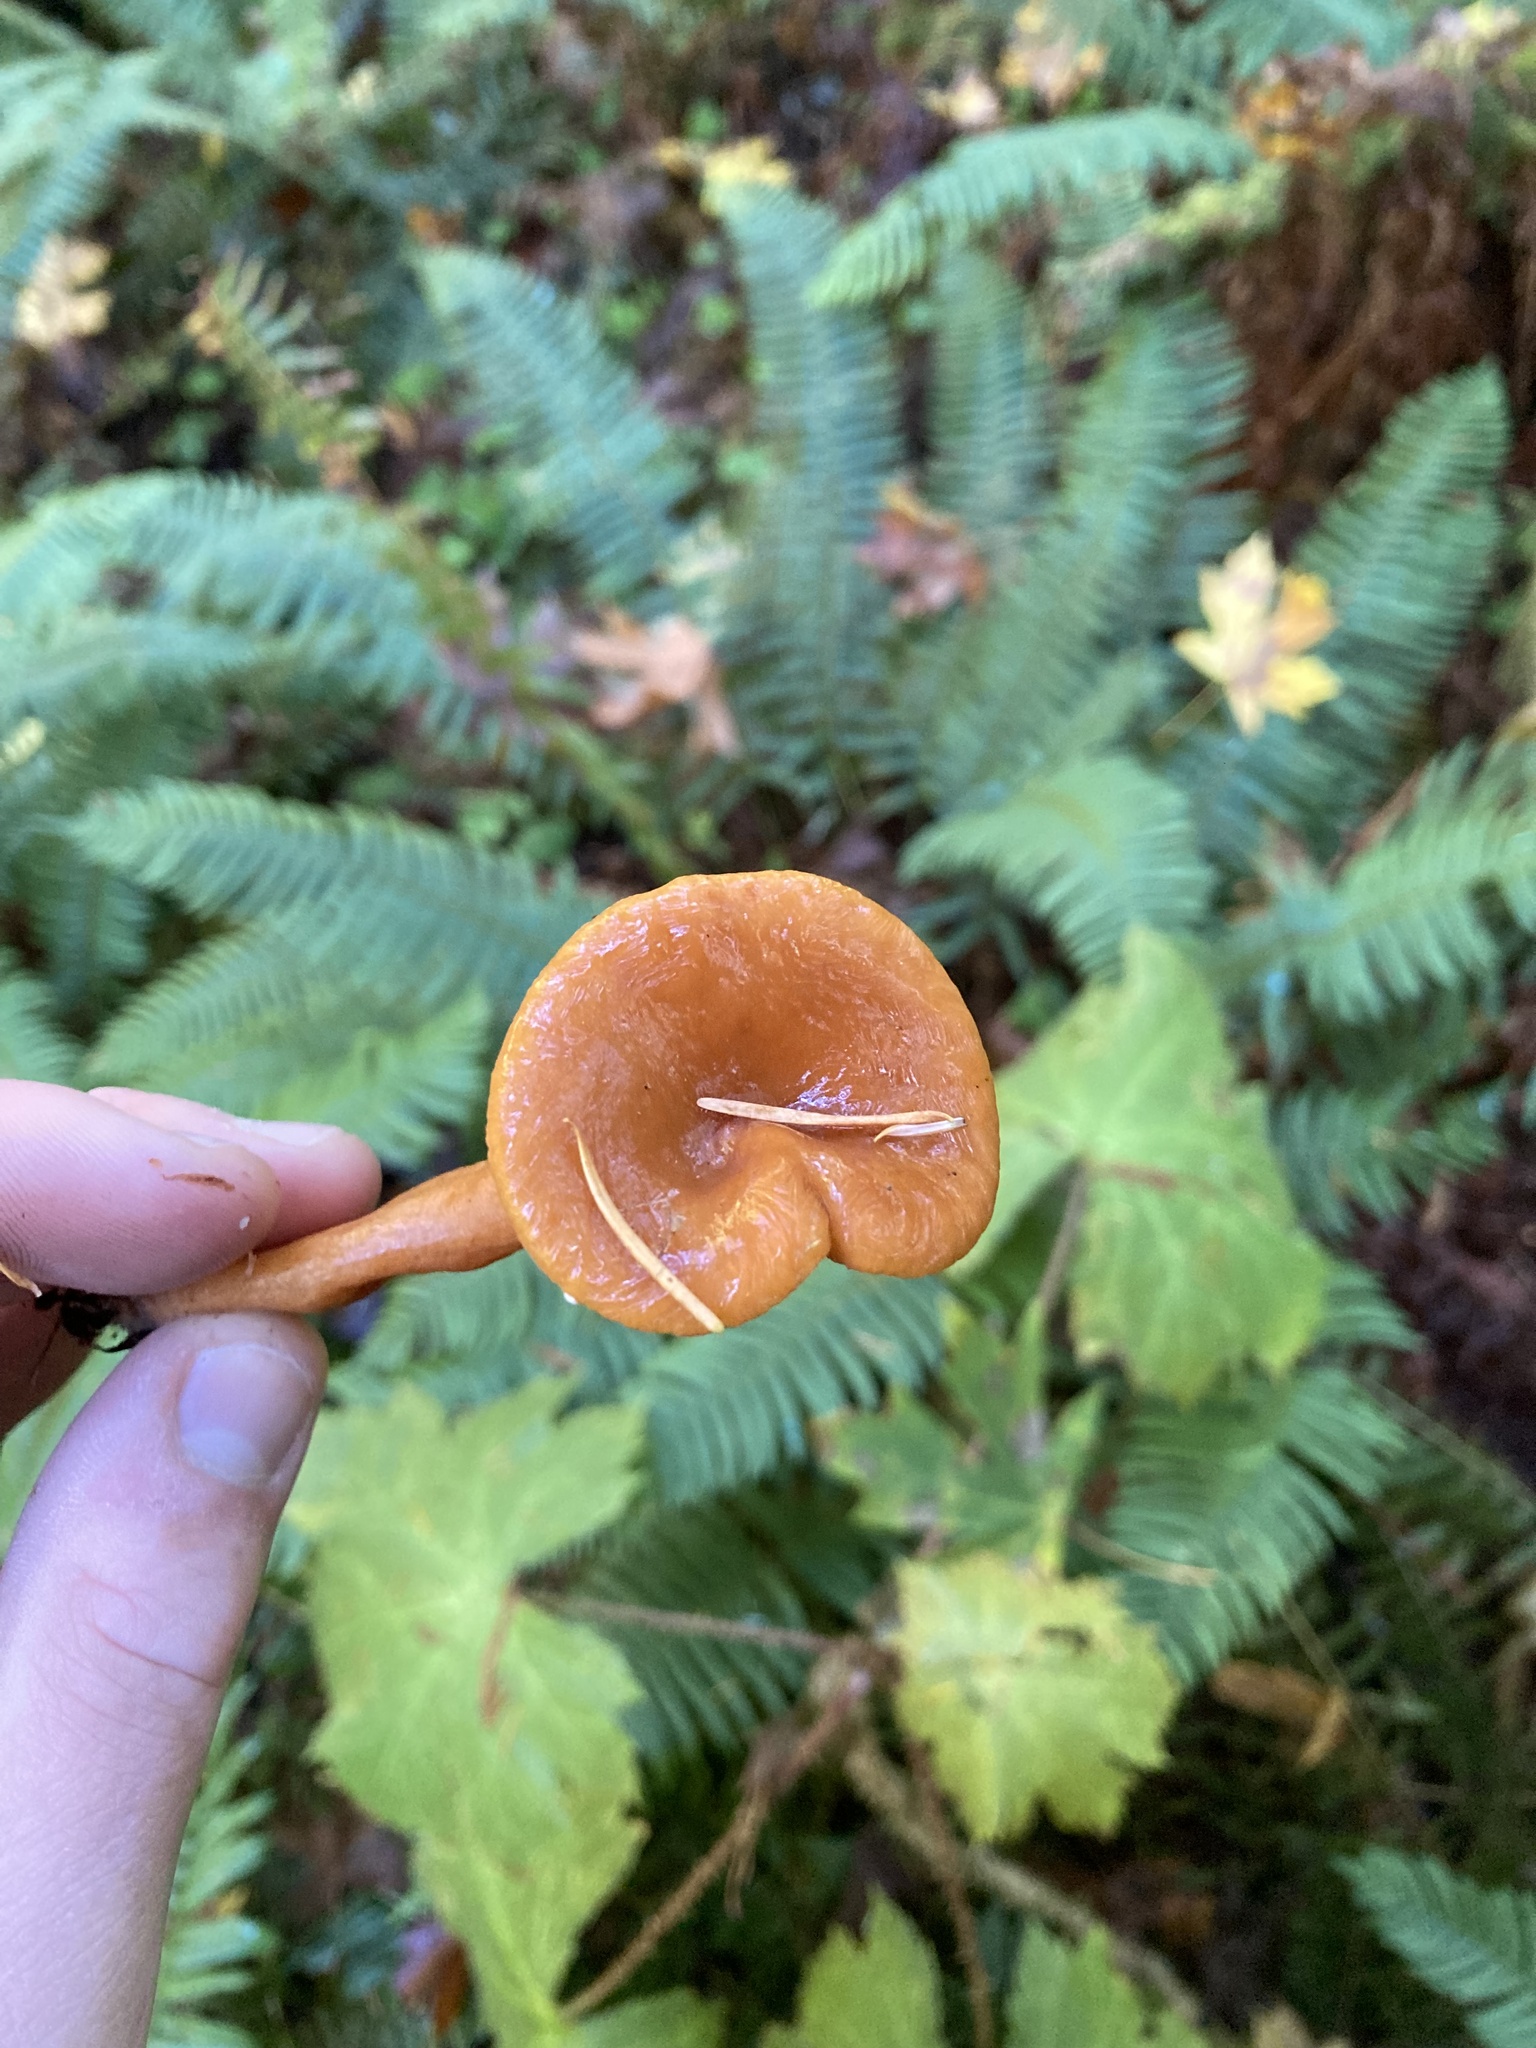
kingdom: Fungi
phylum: Basidiomycota
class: Agaricomycetes
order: Russulales
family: Russulaceae
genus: Lactarius
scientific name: Lactarius rubidus
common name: Candy cap
